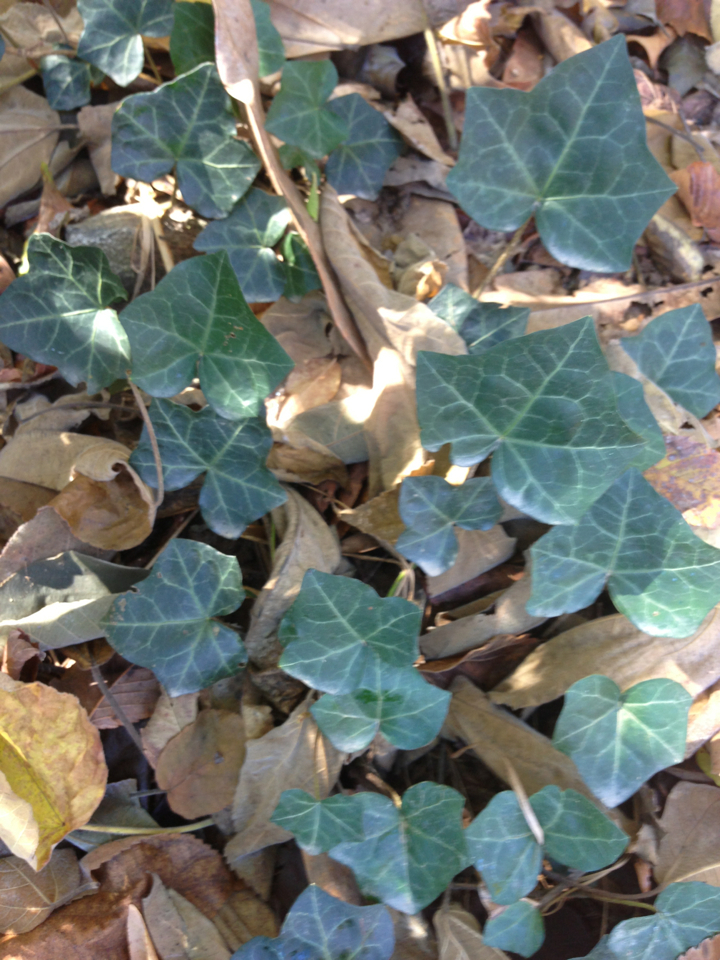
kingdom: Plantae
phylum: Tracheophyta
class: Magnoliopsida
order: Apiales
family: Araliaceae
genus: Hedera
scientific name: Hedera helix
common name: Ivy
